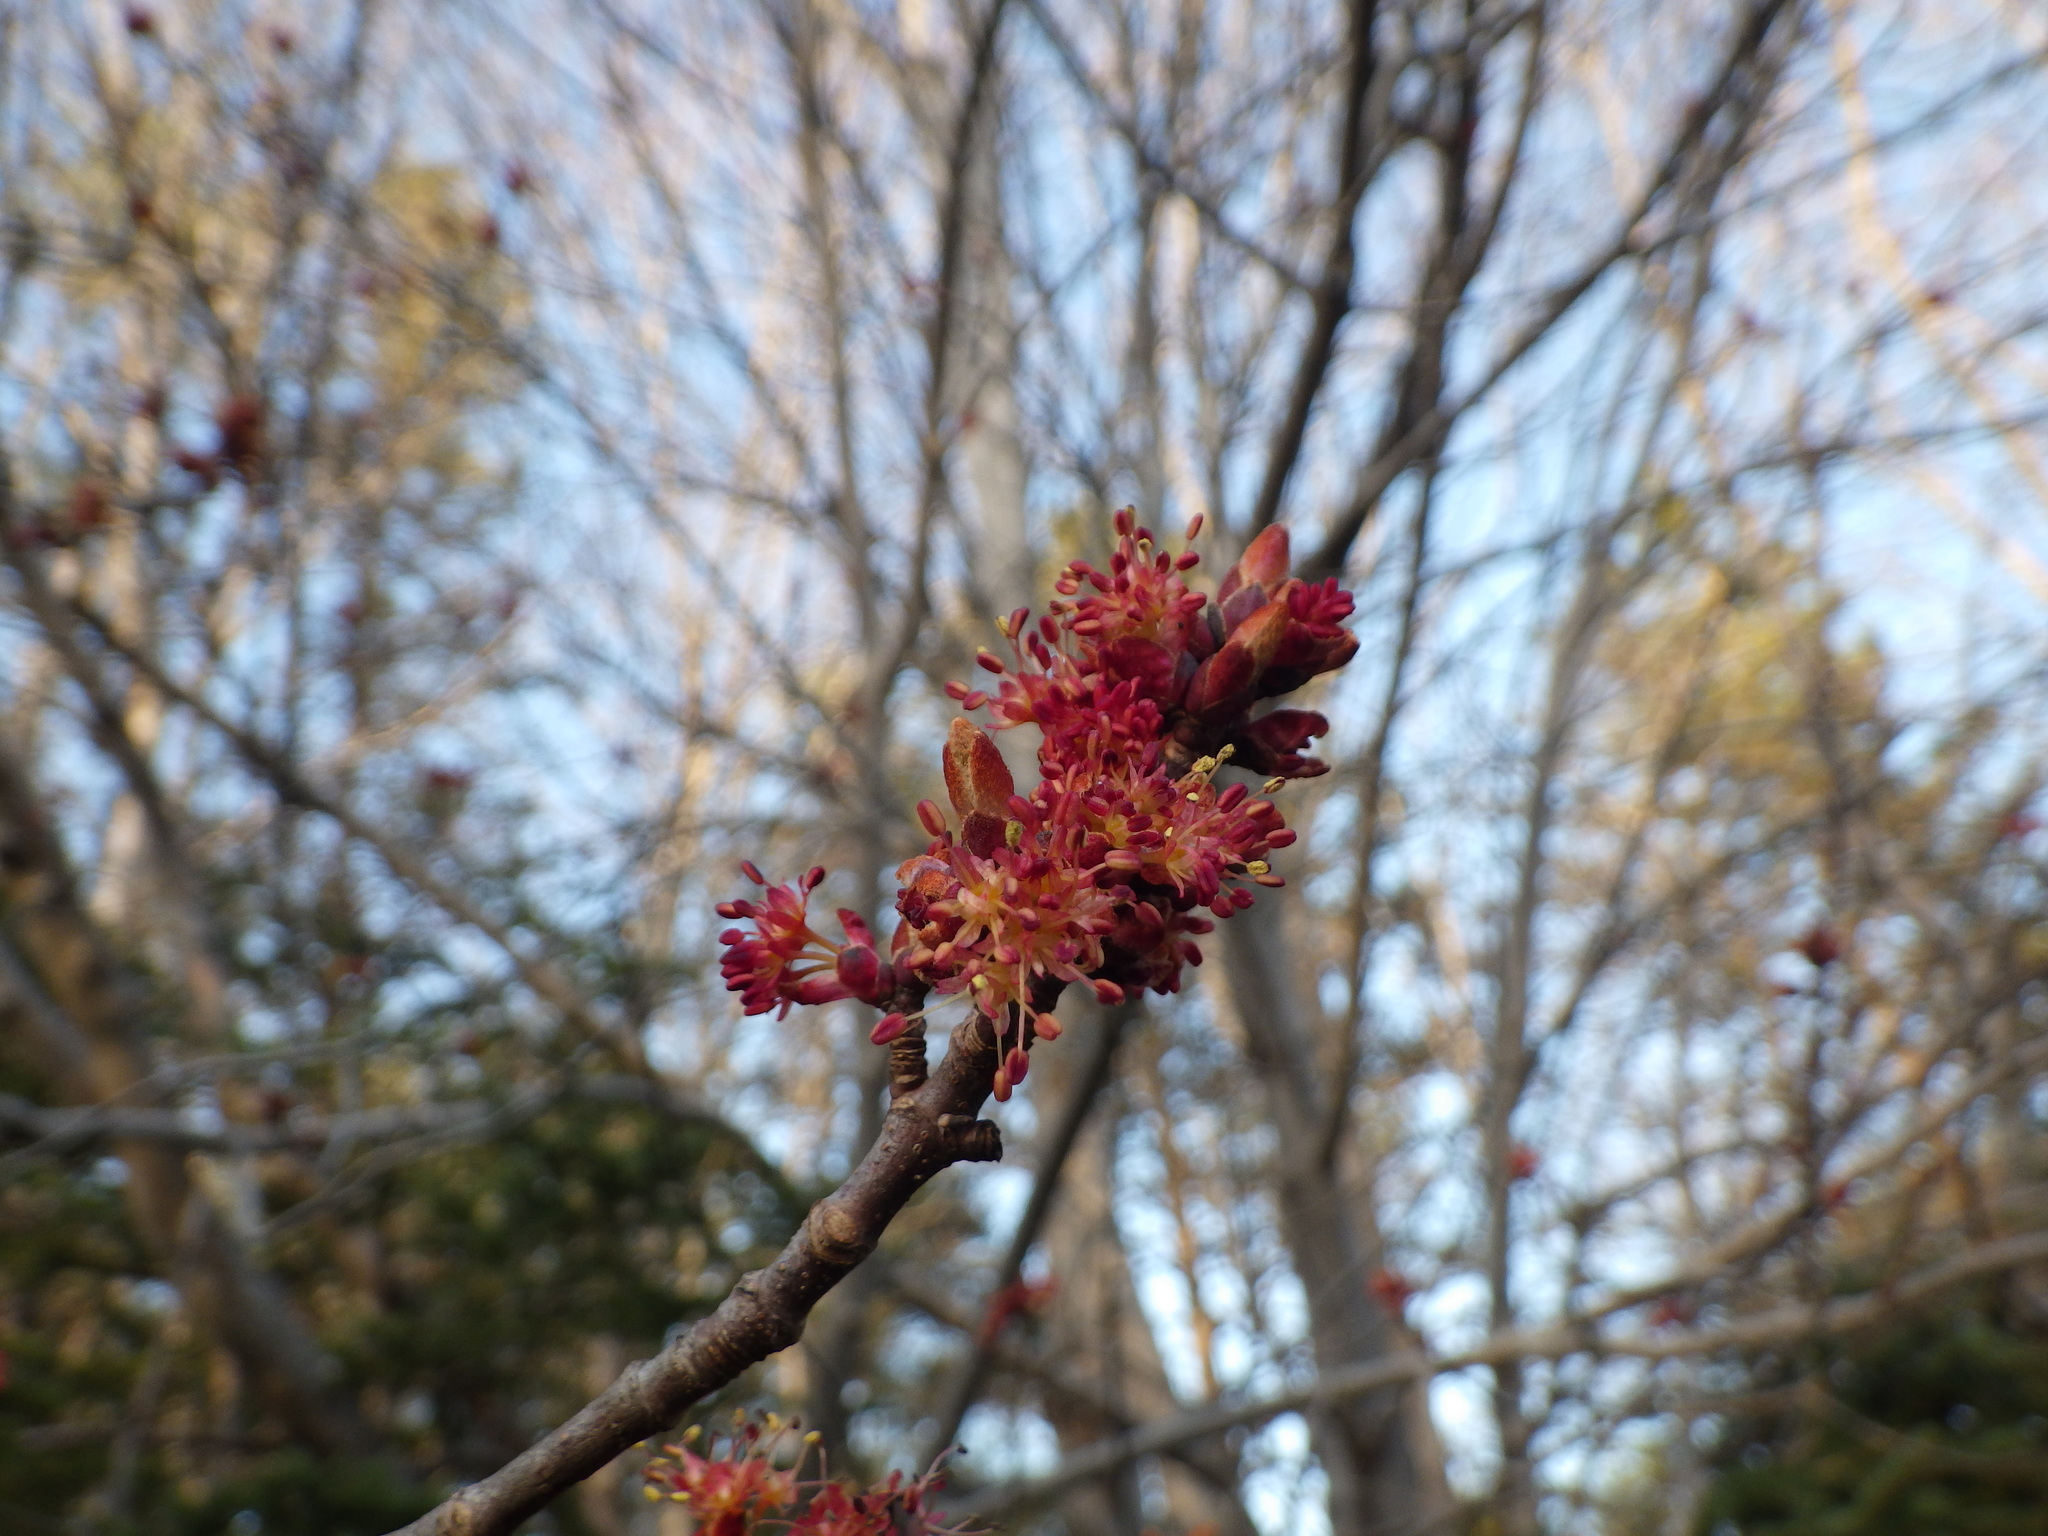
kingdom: Plantae
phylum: Tracheophyta
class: Magnoliopsida
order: Sapindales
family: Sapindaceae
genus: Acer
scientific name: Acer rubrum
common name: Red maple
